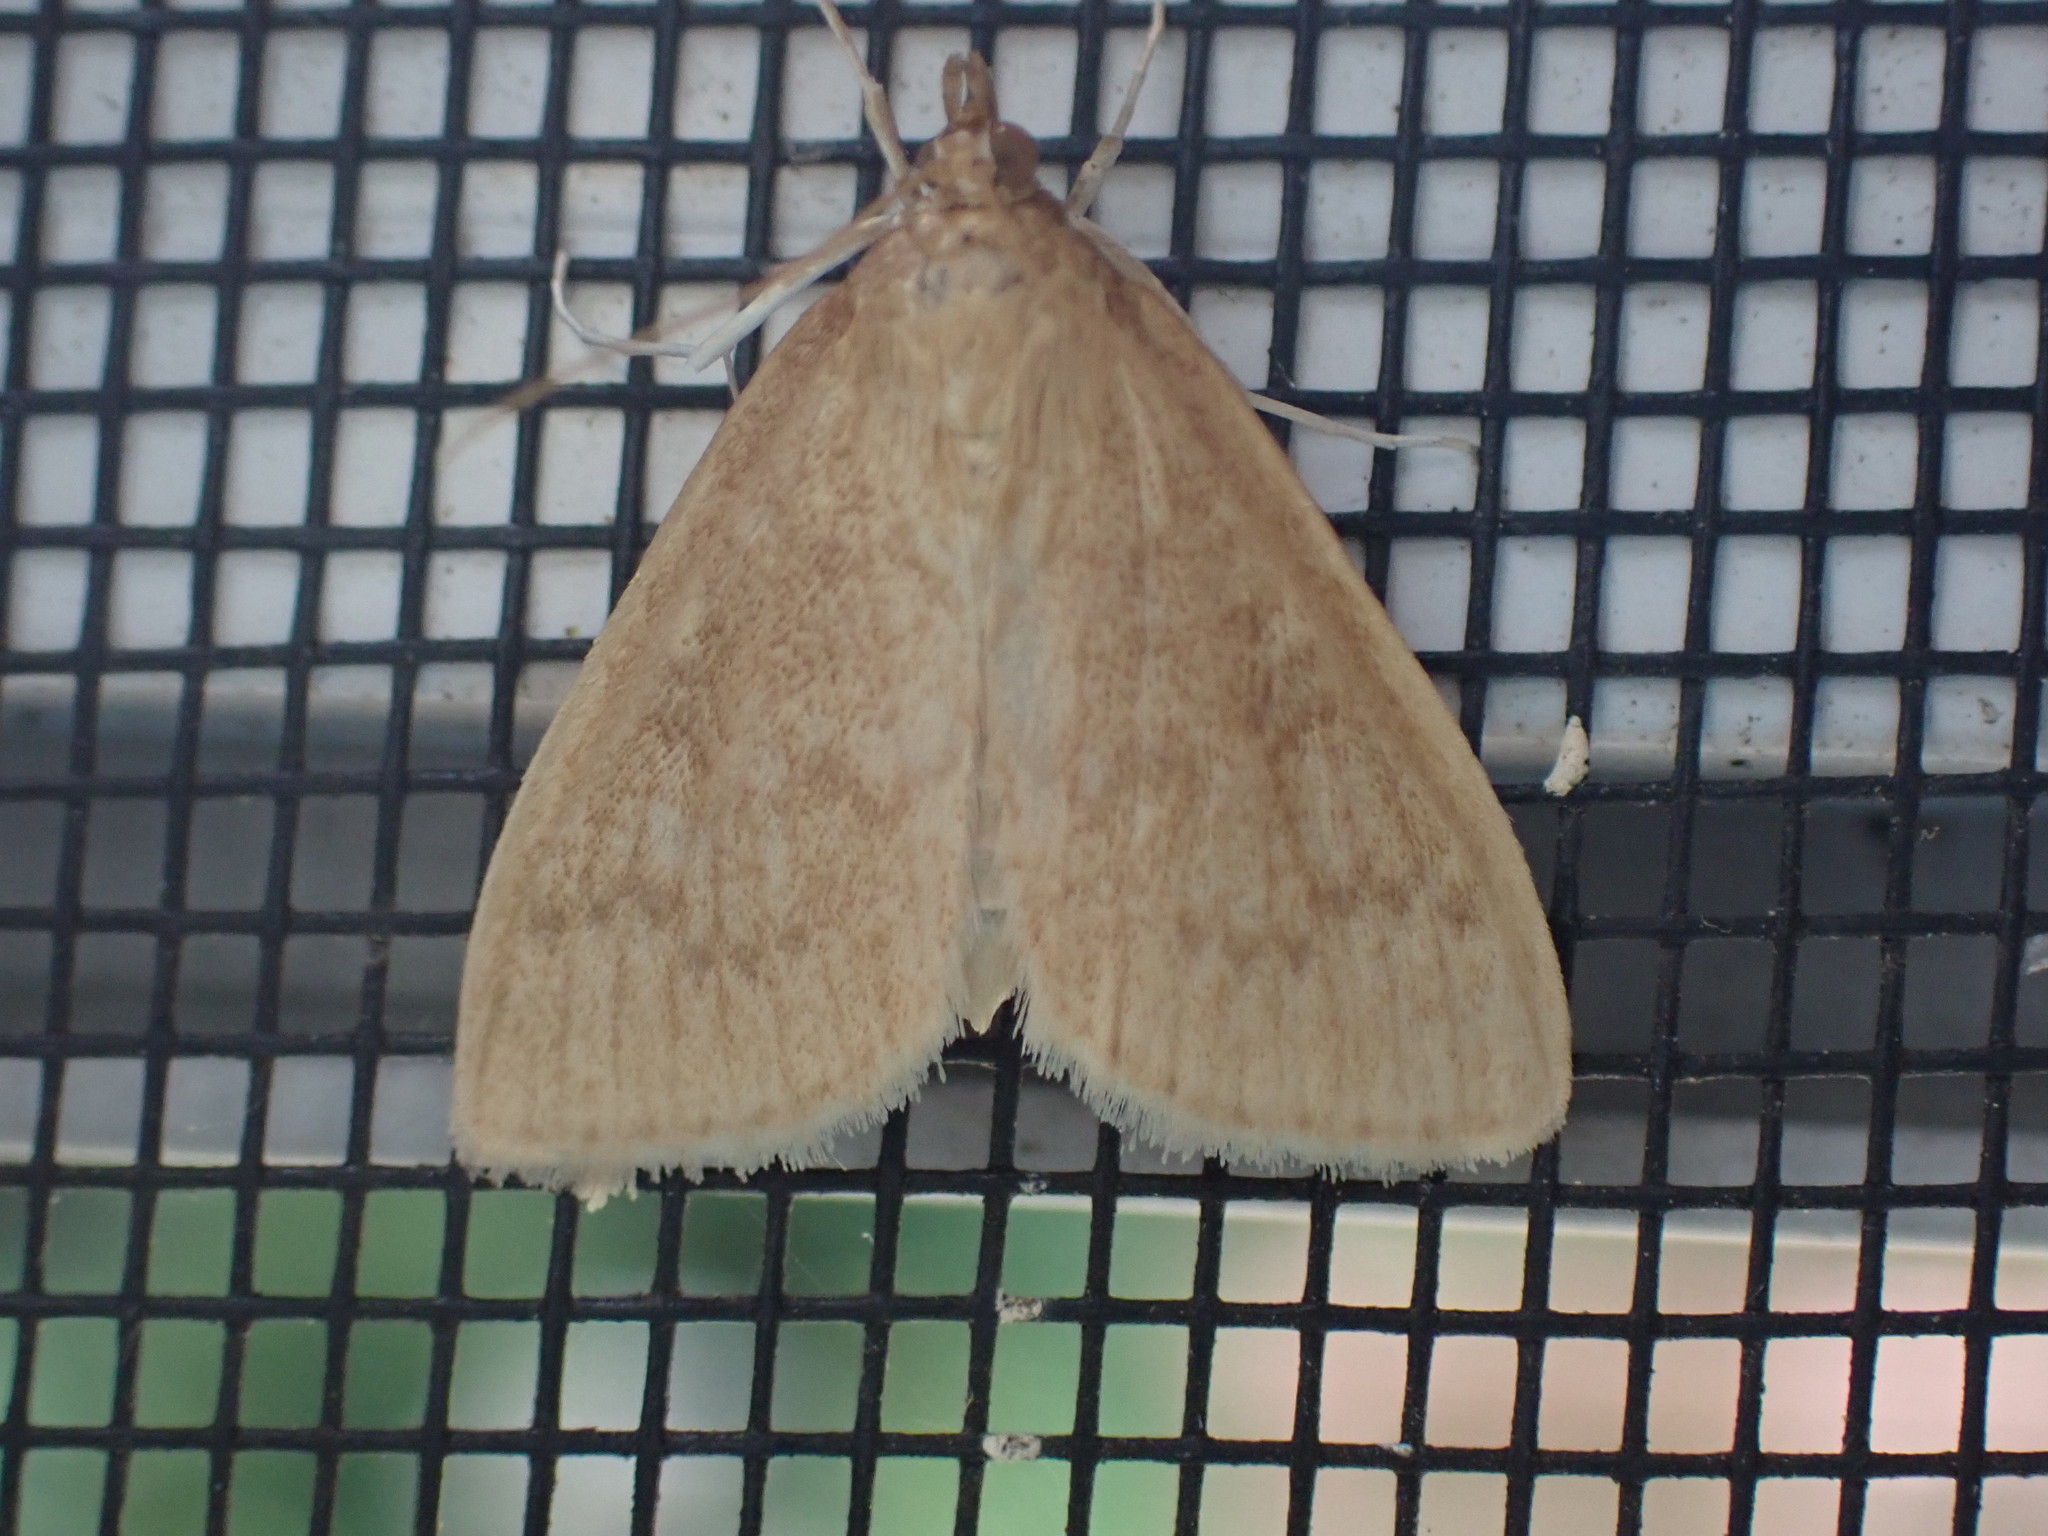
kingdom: Animalia
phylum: Arthropoda
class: Insecta
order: Lepidoptera
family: Crambidae
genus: Anania
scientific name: Anania Framinghamia helvalis
